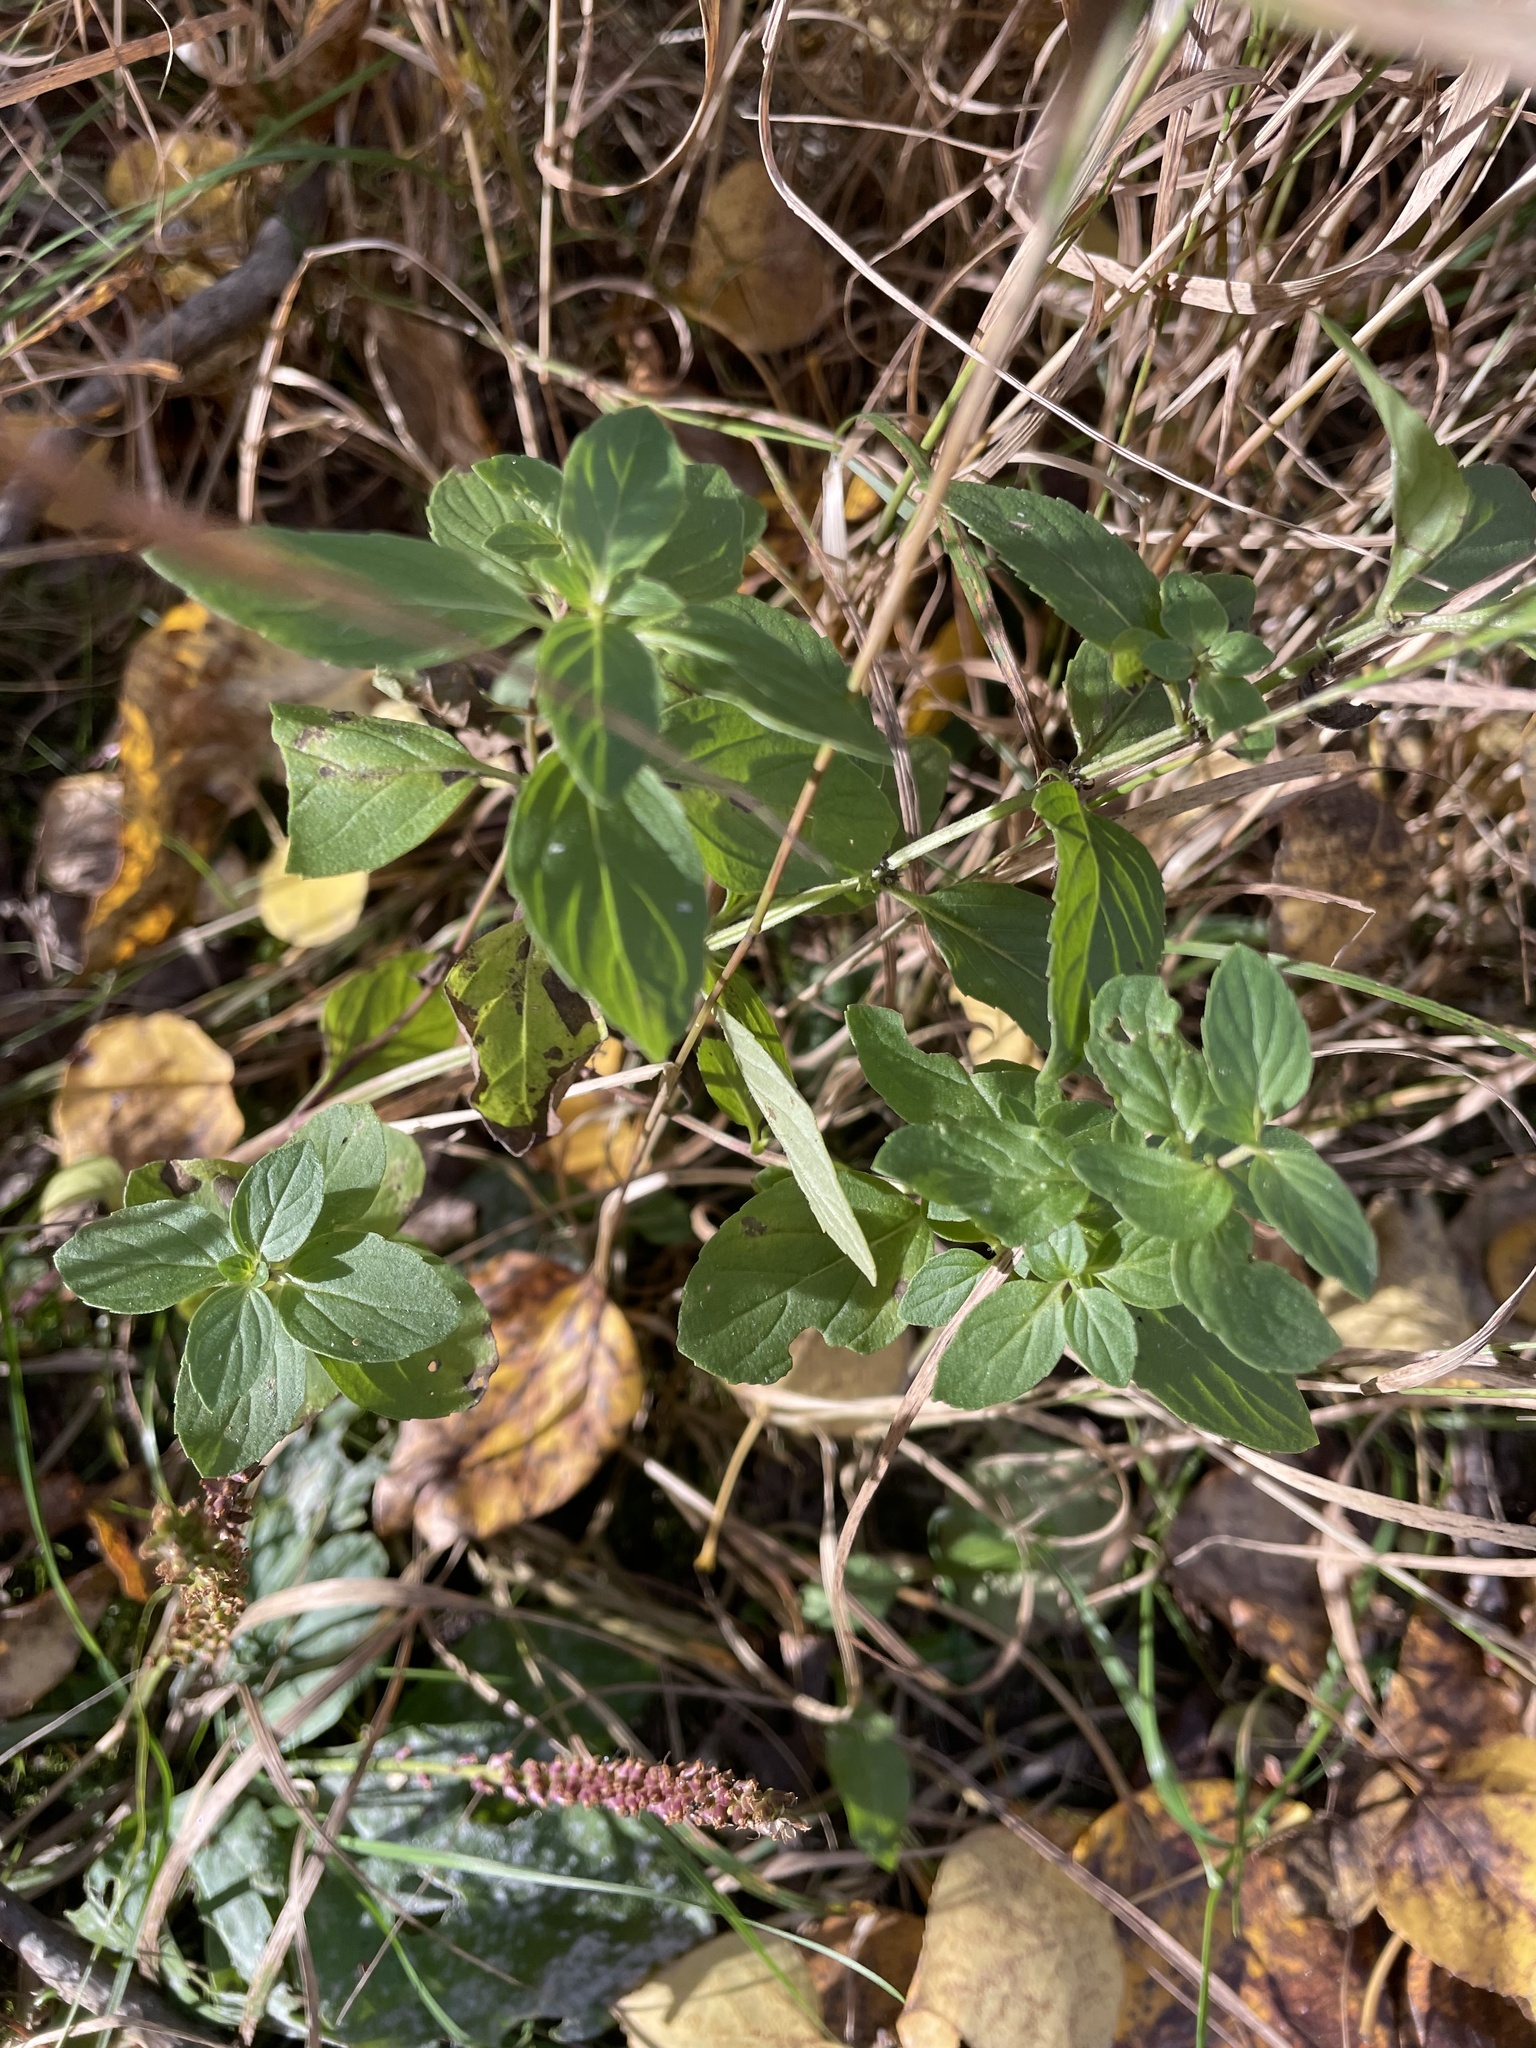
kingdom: Plantae
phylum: Tracheophyta
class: Magnoliopsida
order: Lamiales
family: Lamiaceae
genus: Mentha
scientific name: Mentha canadensis
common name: American corn mint
